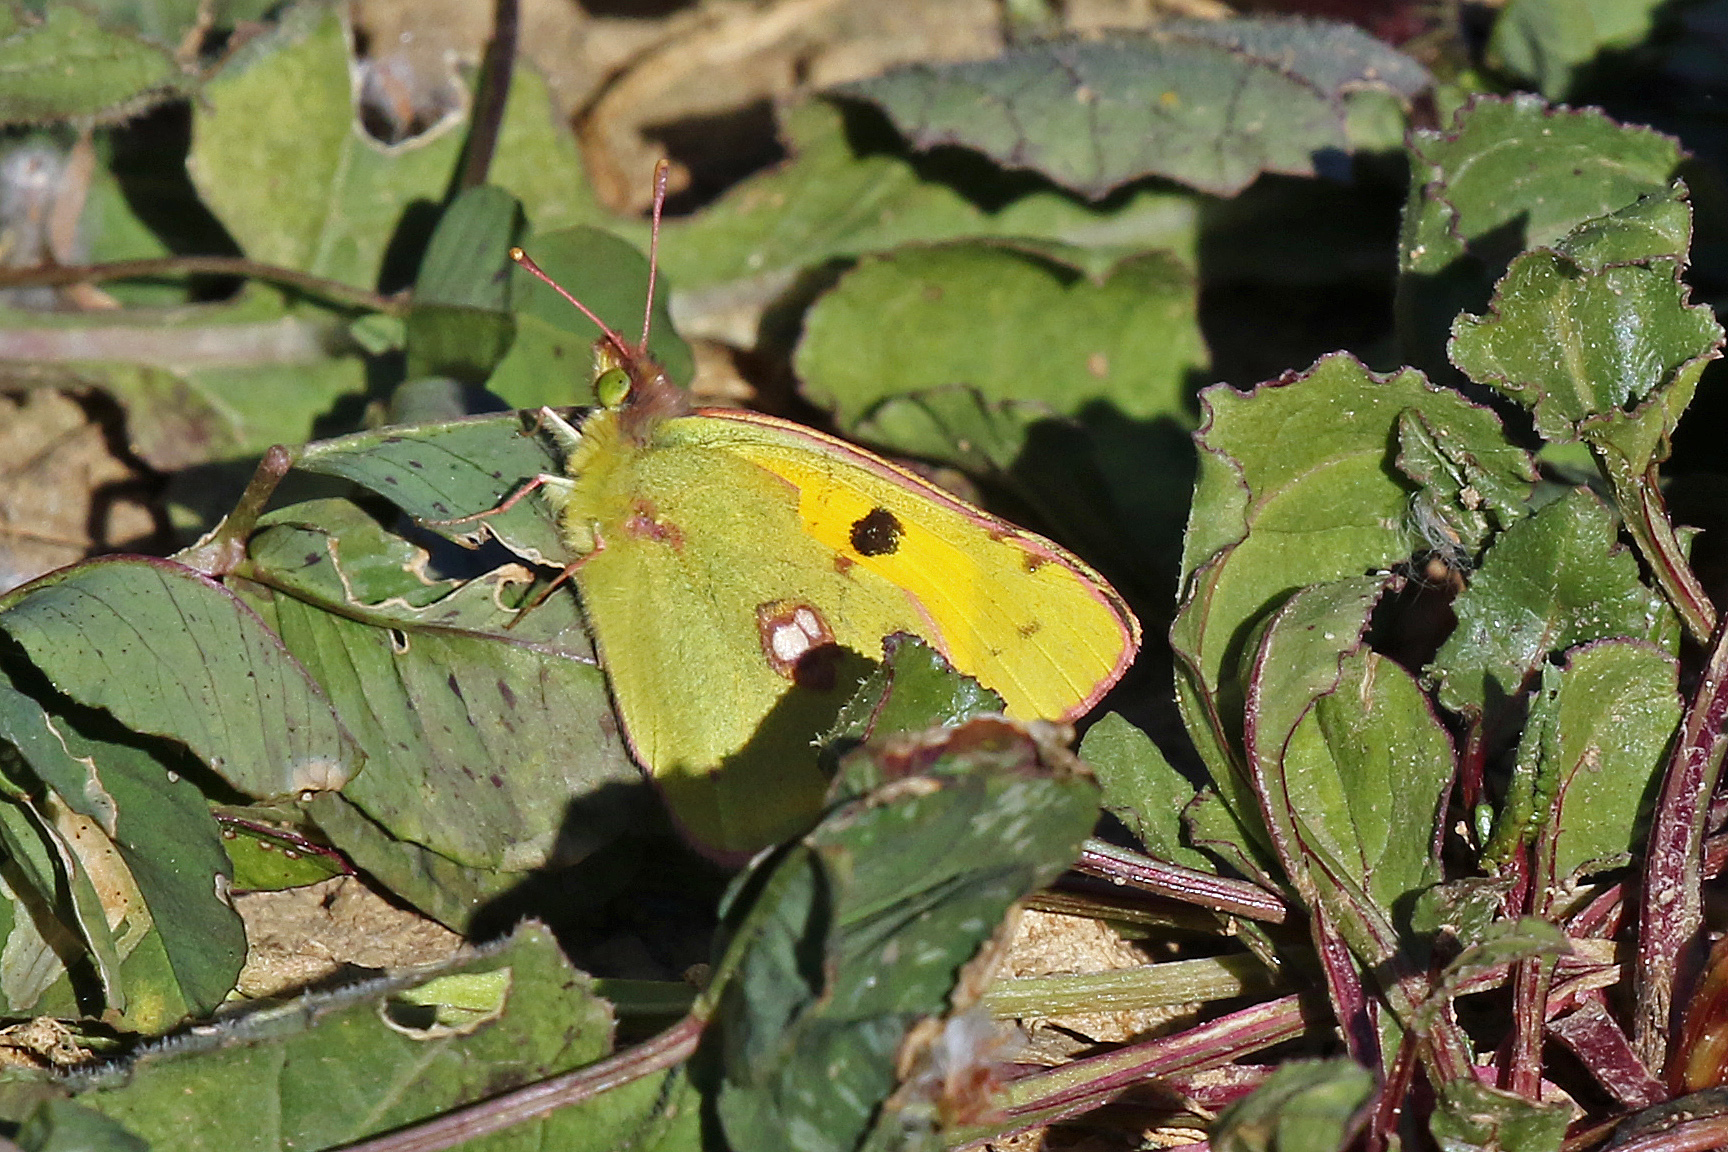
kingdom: Animalia
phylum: Arthropoda
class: Insecta
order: Lepidoptera
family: Pieridae
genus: Colias
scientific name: Colias croceus
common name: Clouded yellow
